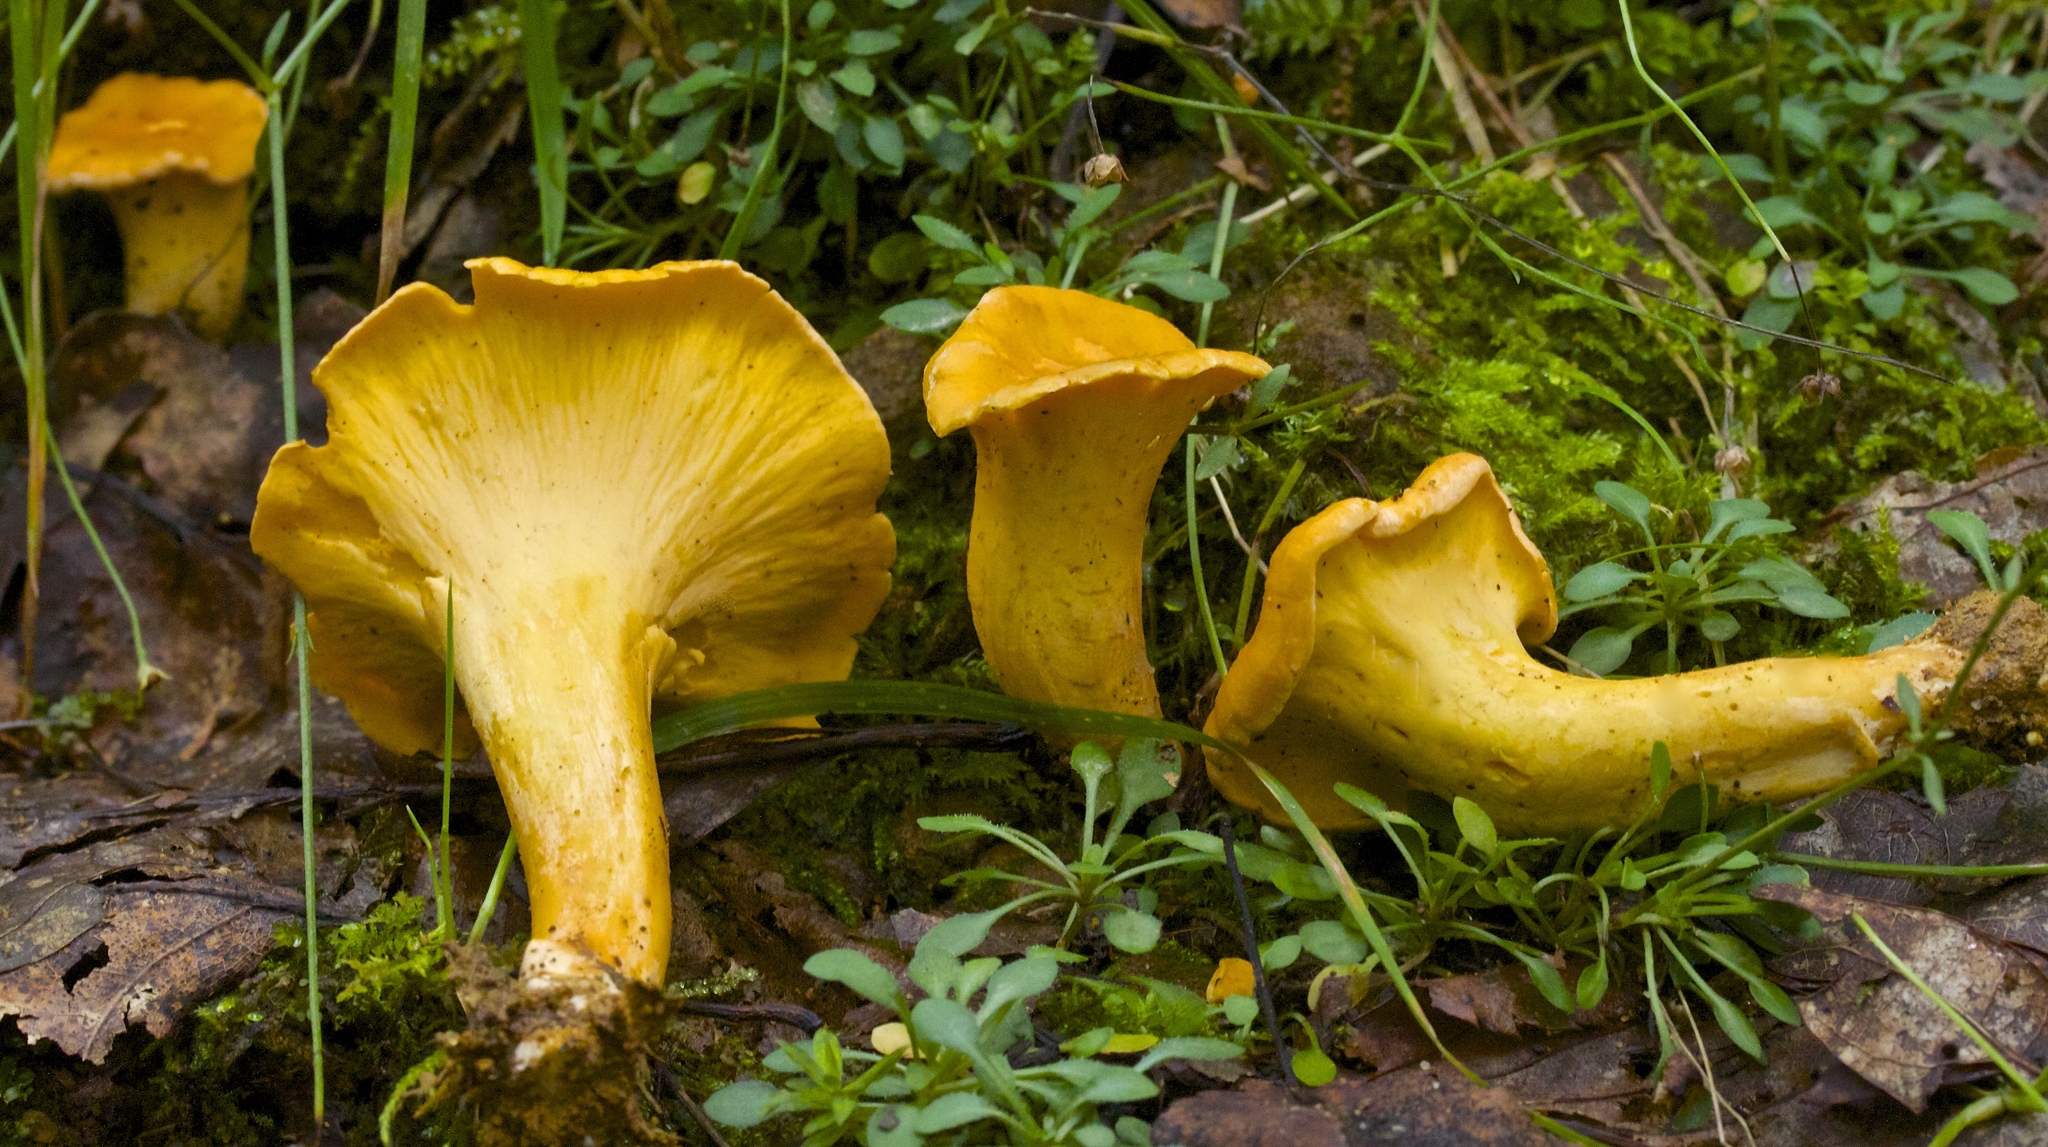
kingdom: Fungi
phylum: Basidiomycota
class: Agaricomycetes
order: Cantharellales
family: Hydnaceae
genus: Cantharellus
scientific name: Cantharellus lateritius
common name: Smooth chanterelle
